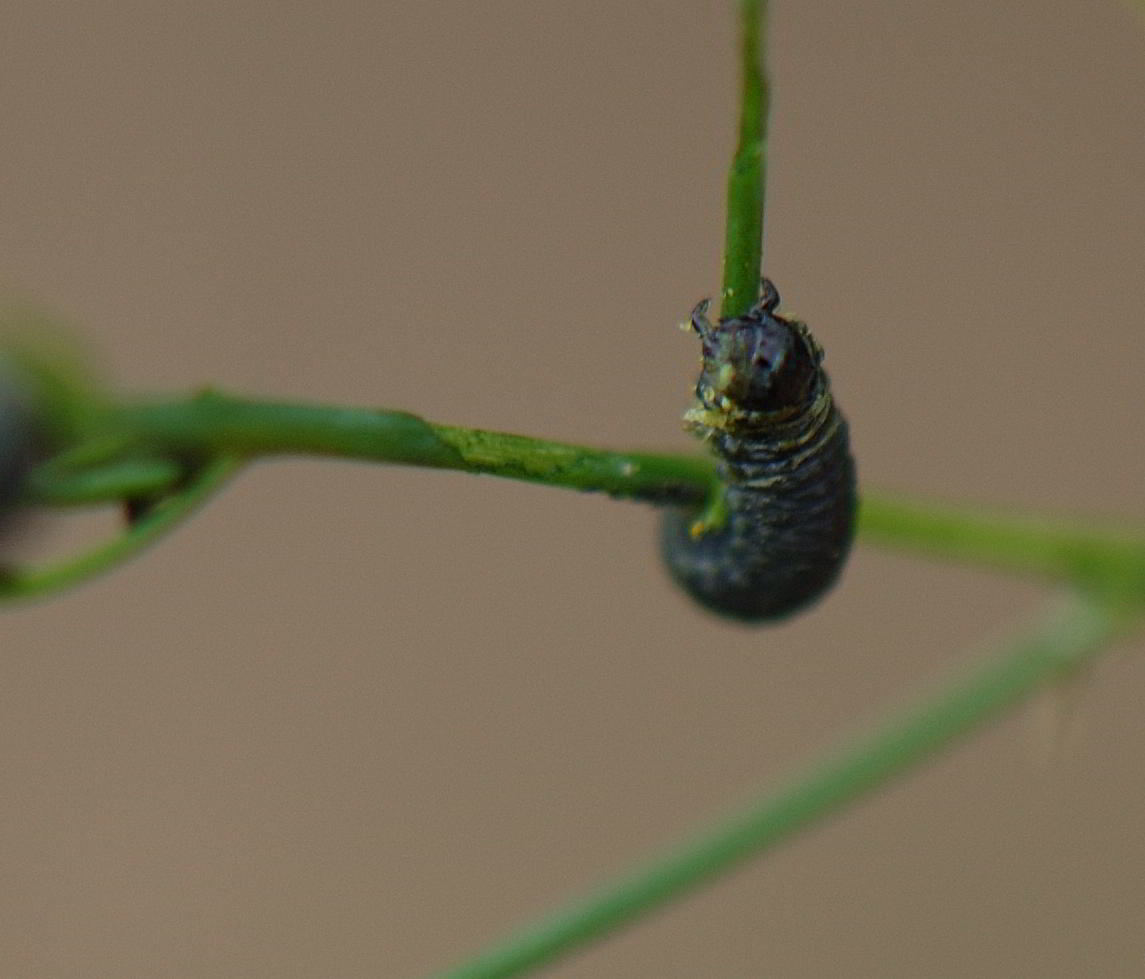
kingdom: Animalia
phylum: Arthropoda
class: Insecta
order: Coleoptera
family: Chrysomelidae
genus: Crioceris
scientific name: Crioceris asparagi
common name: Asparagus beetle
